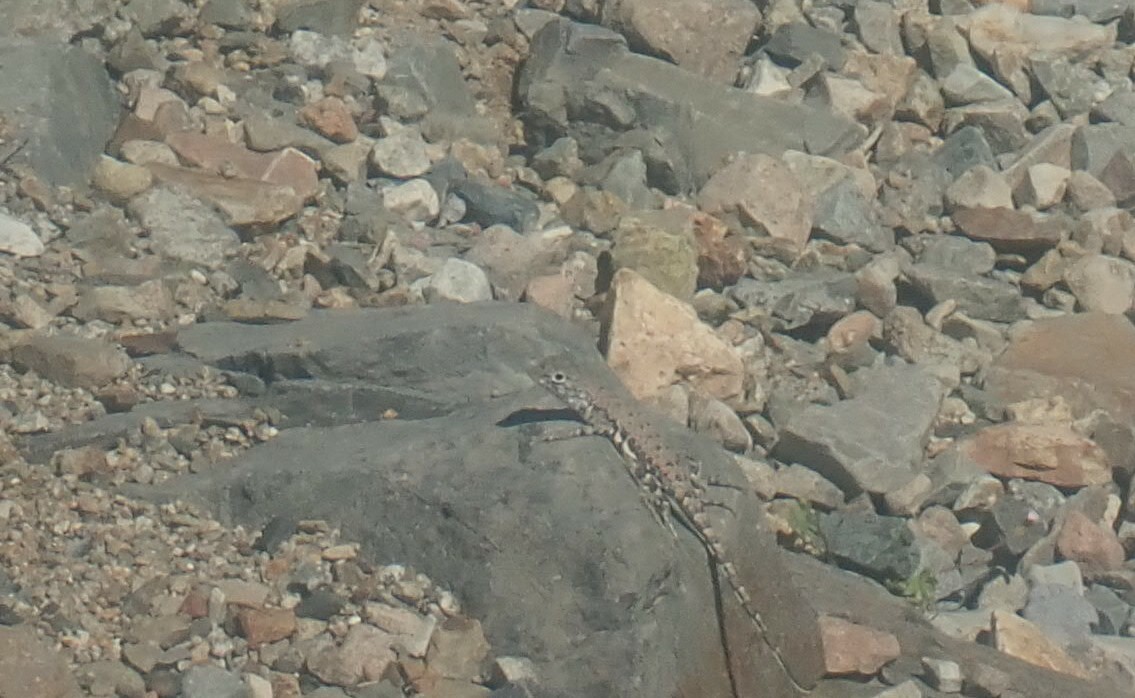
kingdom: Animalia
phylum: Chordata
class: Squamata
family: Phrynosomatidae
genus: Callisaurus
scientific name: Callisaurus draconoides
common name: Zebra-tailed lizard
